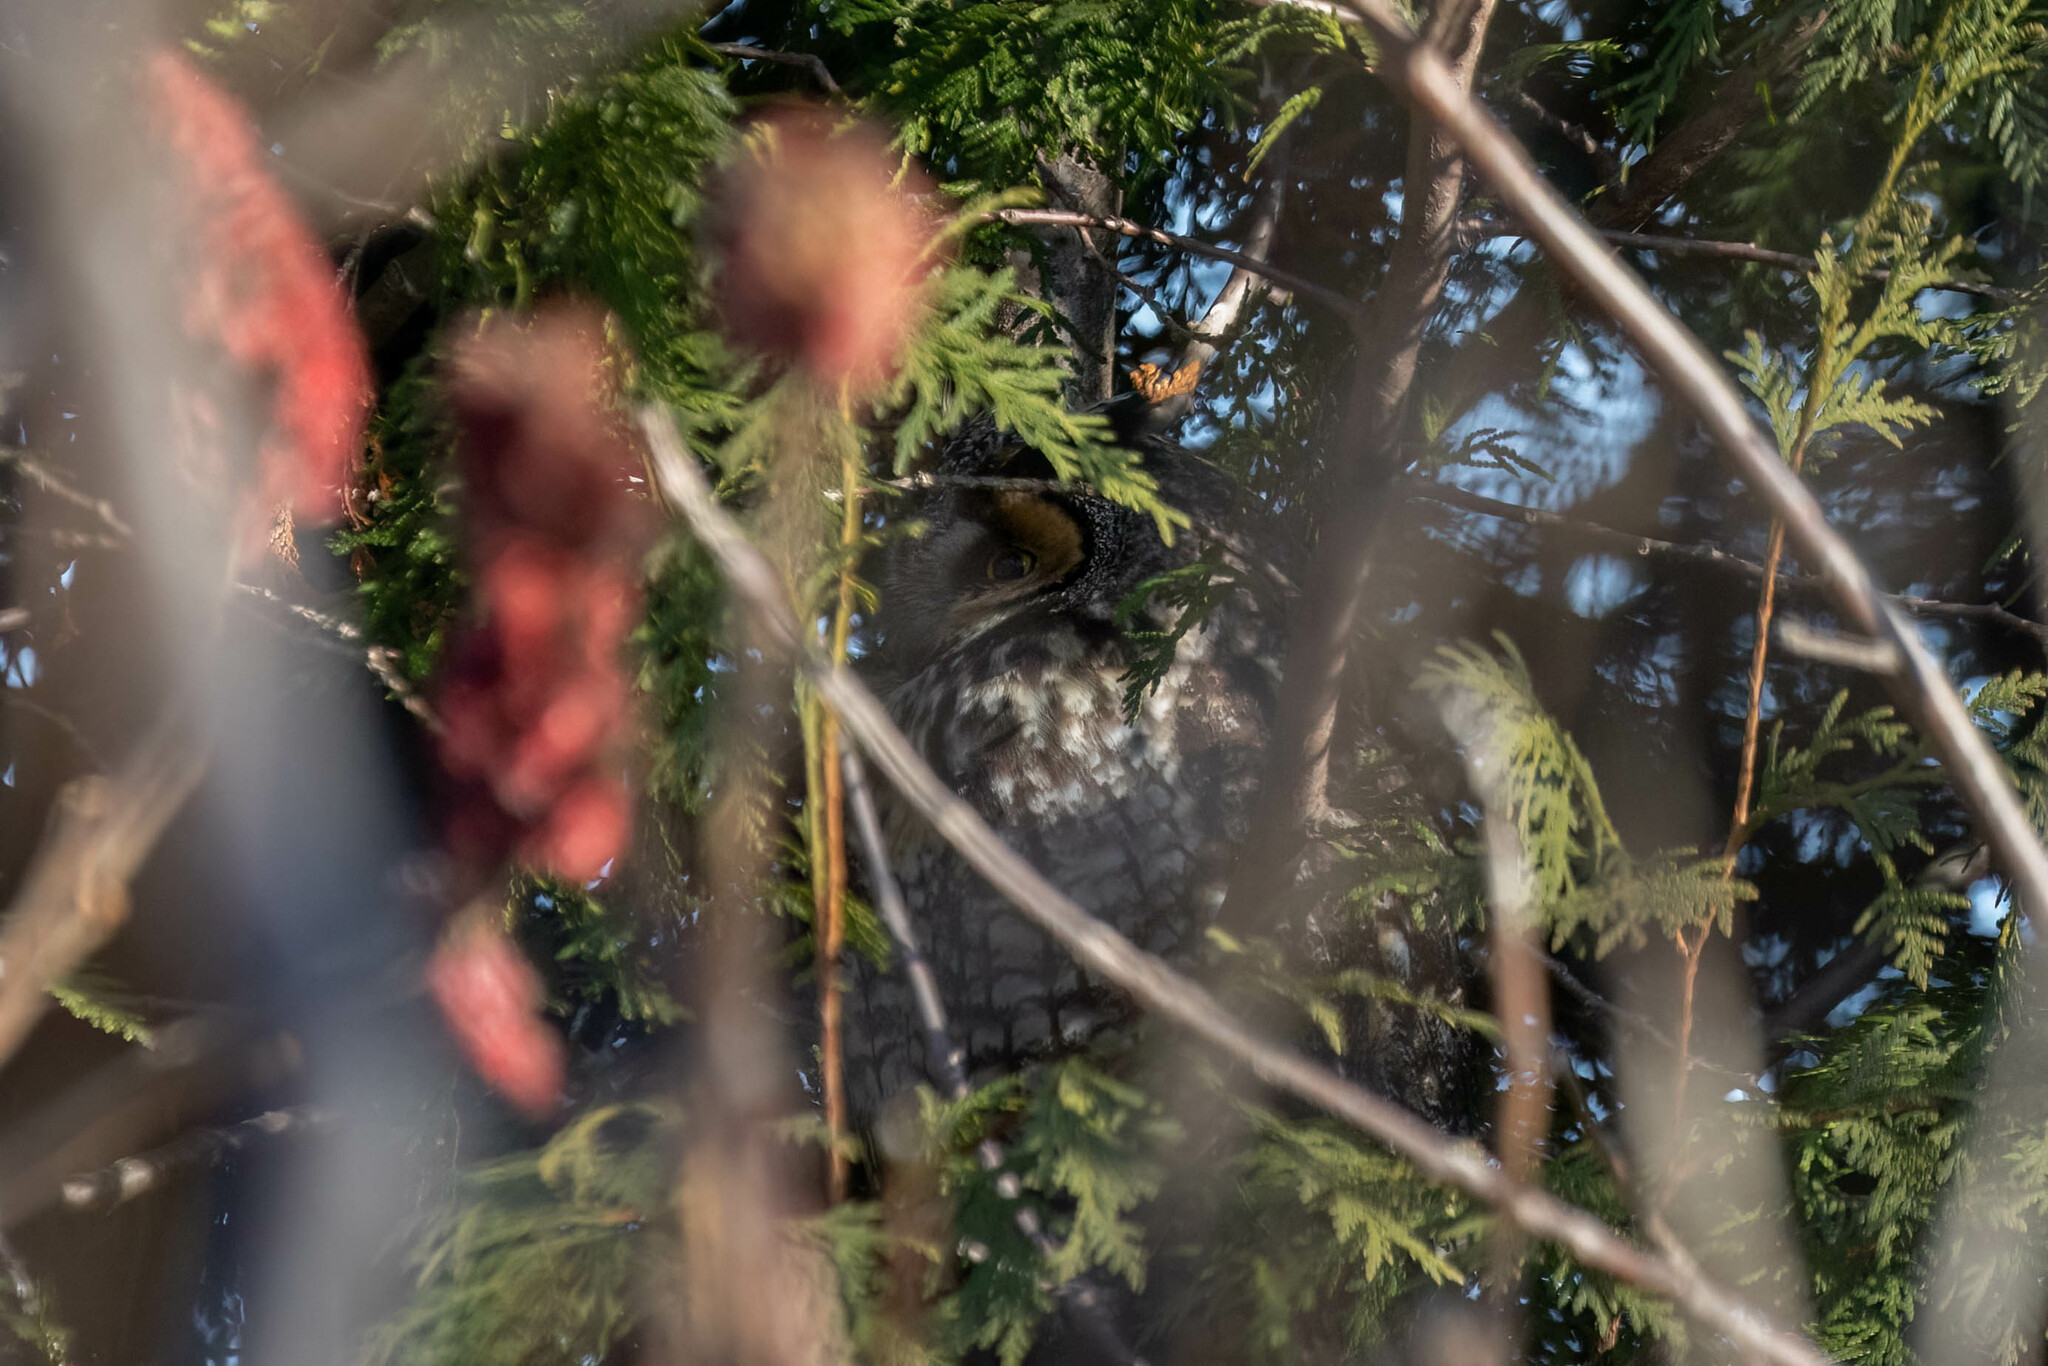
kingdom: Animalia
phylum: Chordata
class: Aves
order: Strigiformes
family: Strigidae
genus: Asio
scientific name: Asio otus
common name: Long-eared owl
